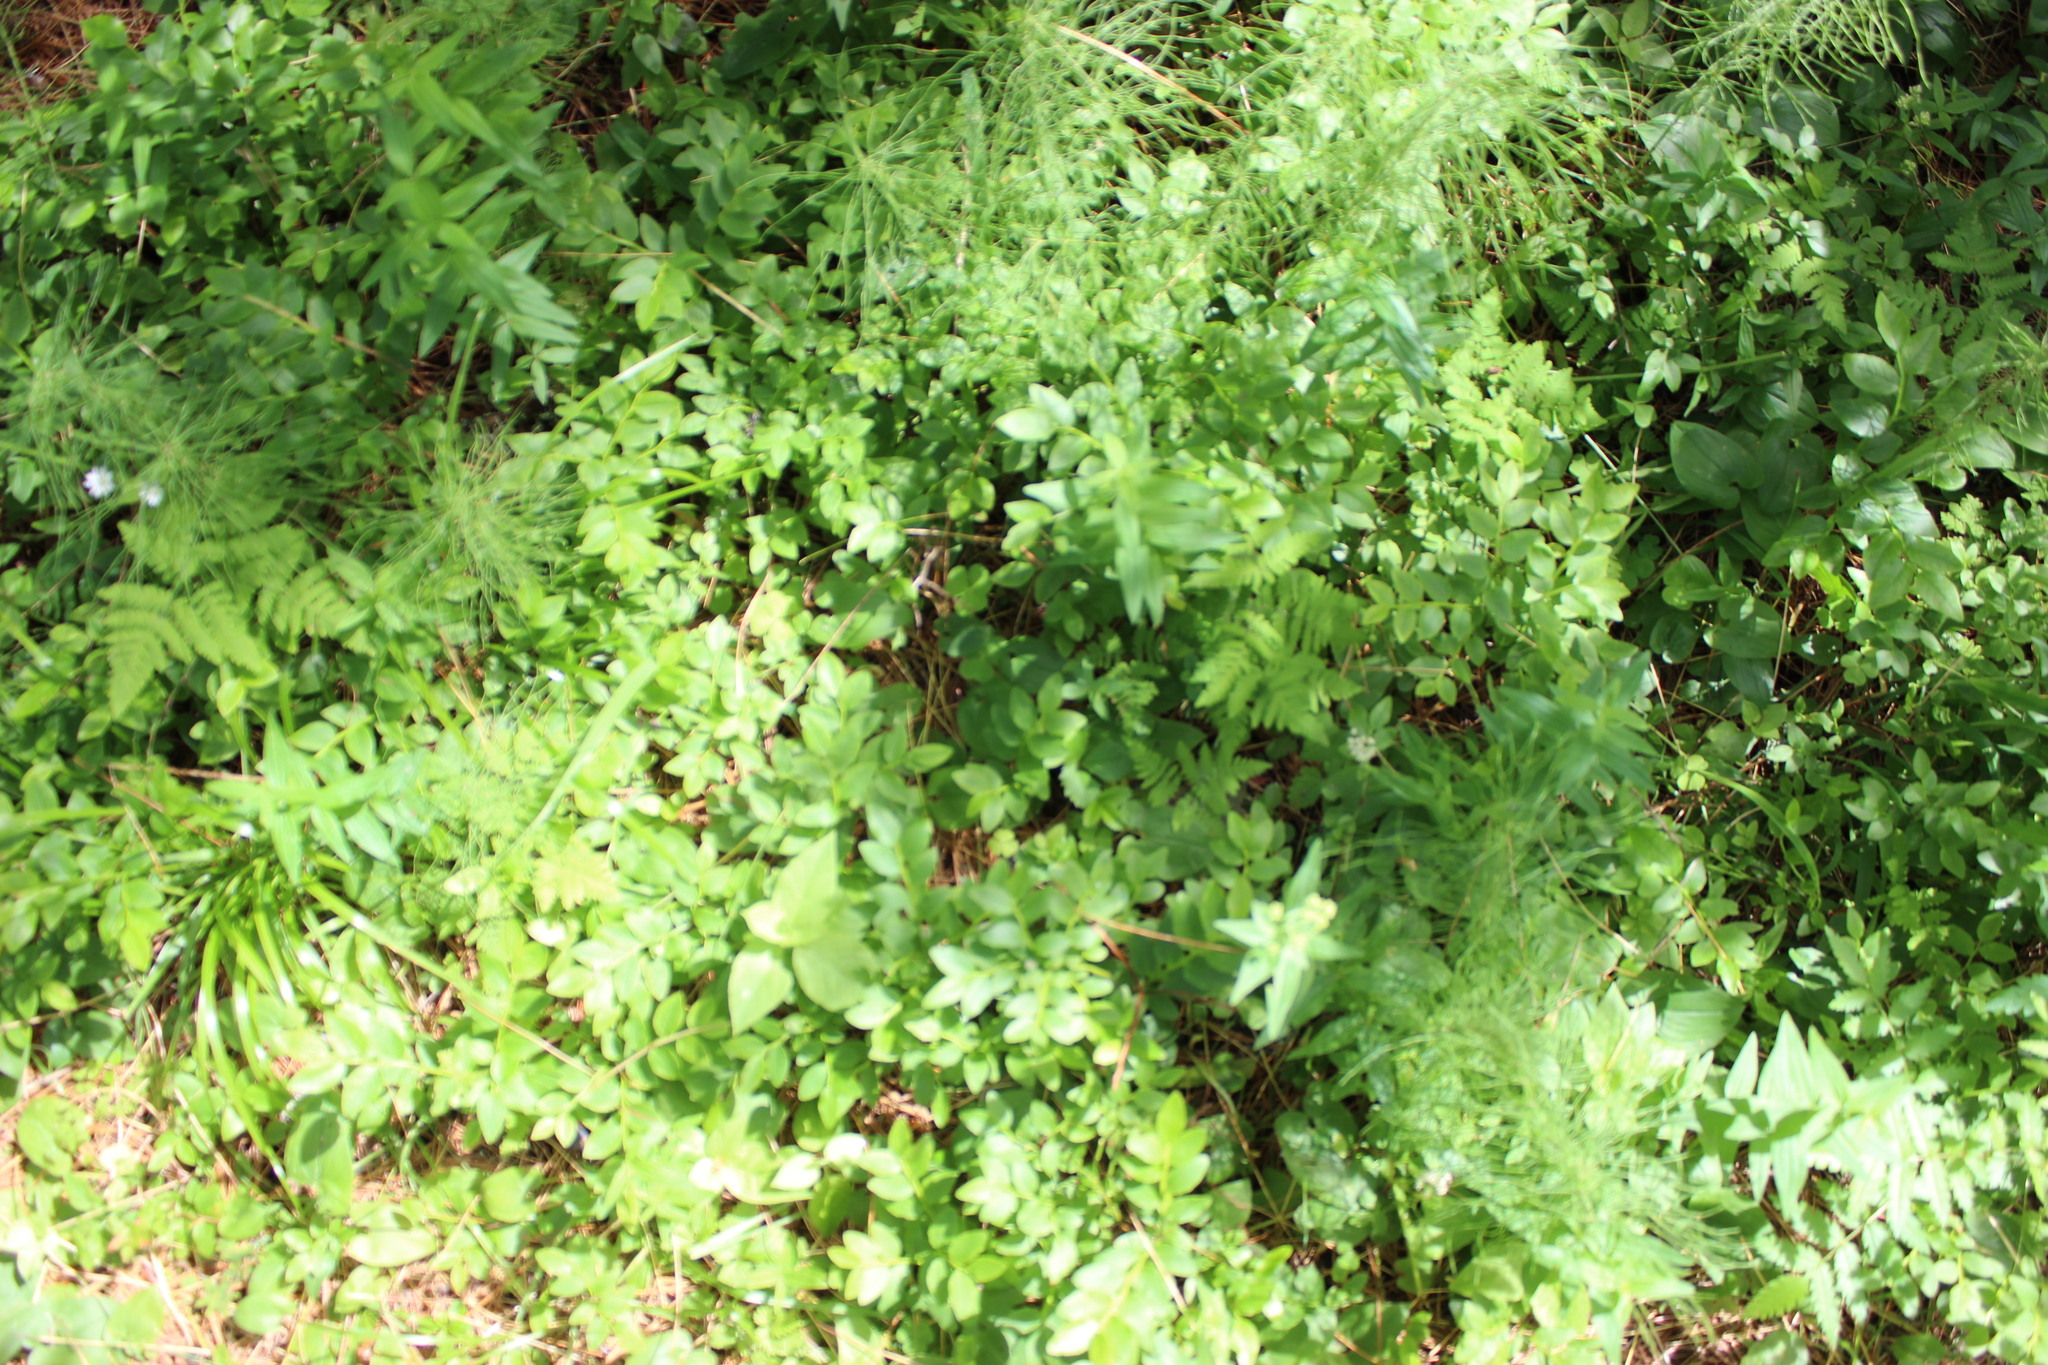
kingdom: Plantae
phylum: Tracheophyta
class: Magnoliopsida
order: Ericales
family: Ericaceae
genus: Vaccinium
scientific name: Vaccinium myrtillus
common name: Bilberry
